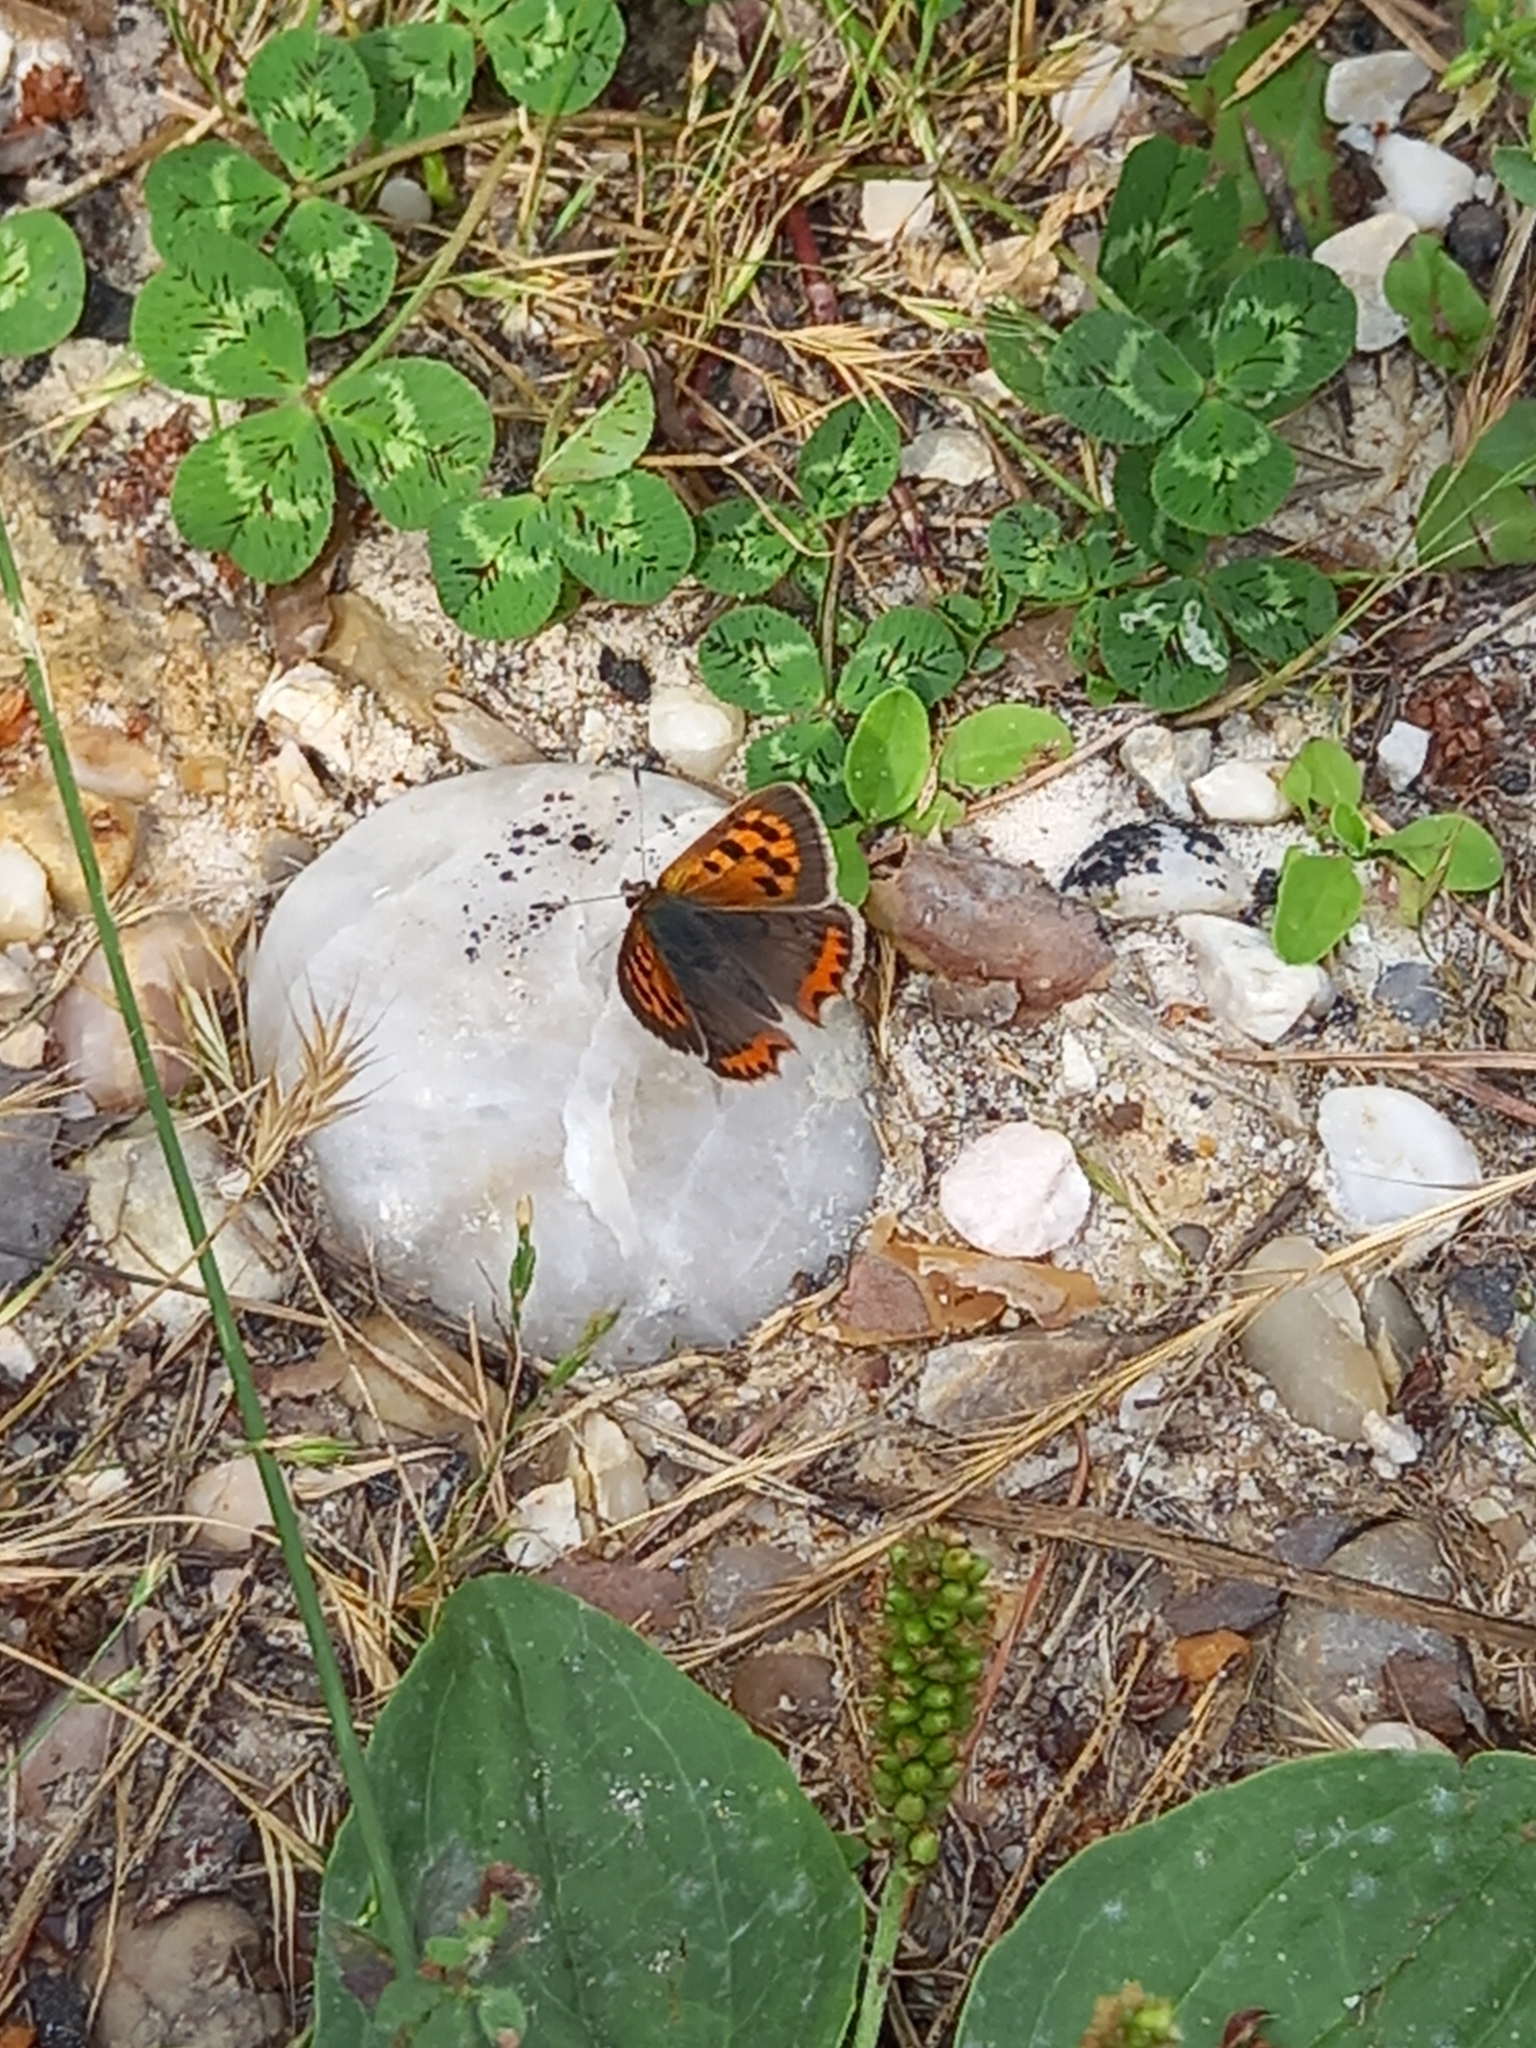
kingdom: Animalia
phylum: Arthropoda
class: Insecta
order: Lepidoptera
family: Lycaenidae
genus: Lycaena
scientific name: Lycaena phlaeas
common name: Small copper
